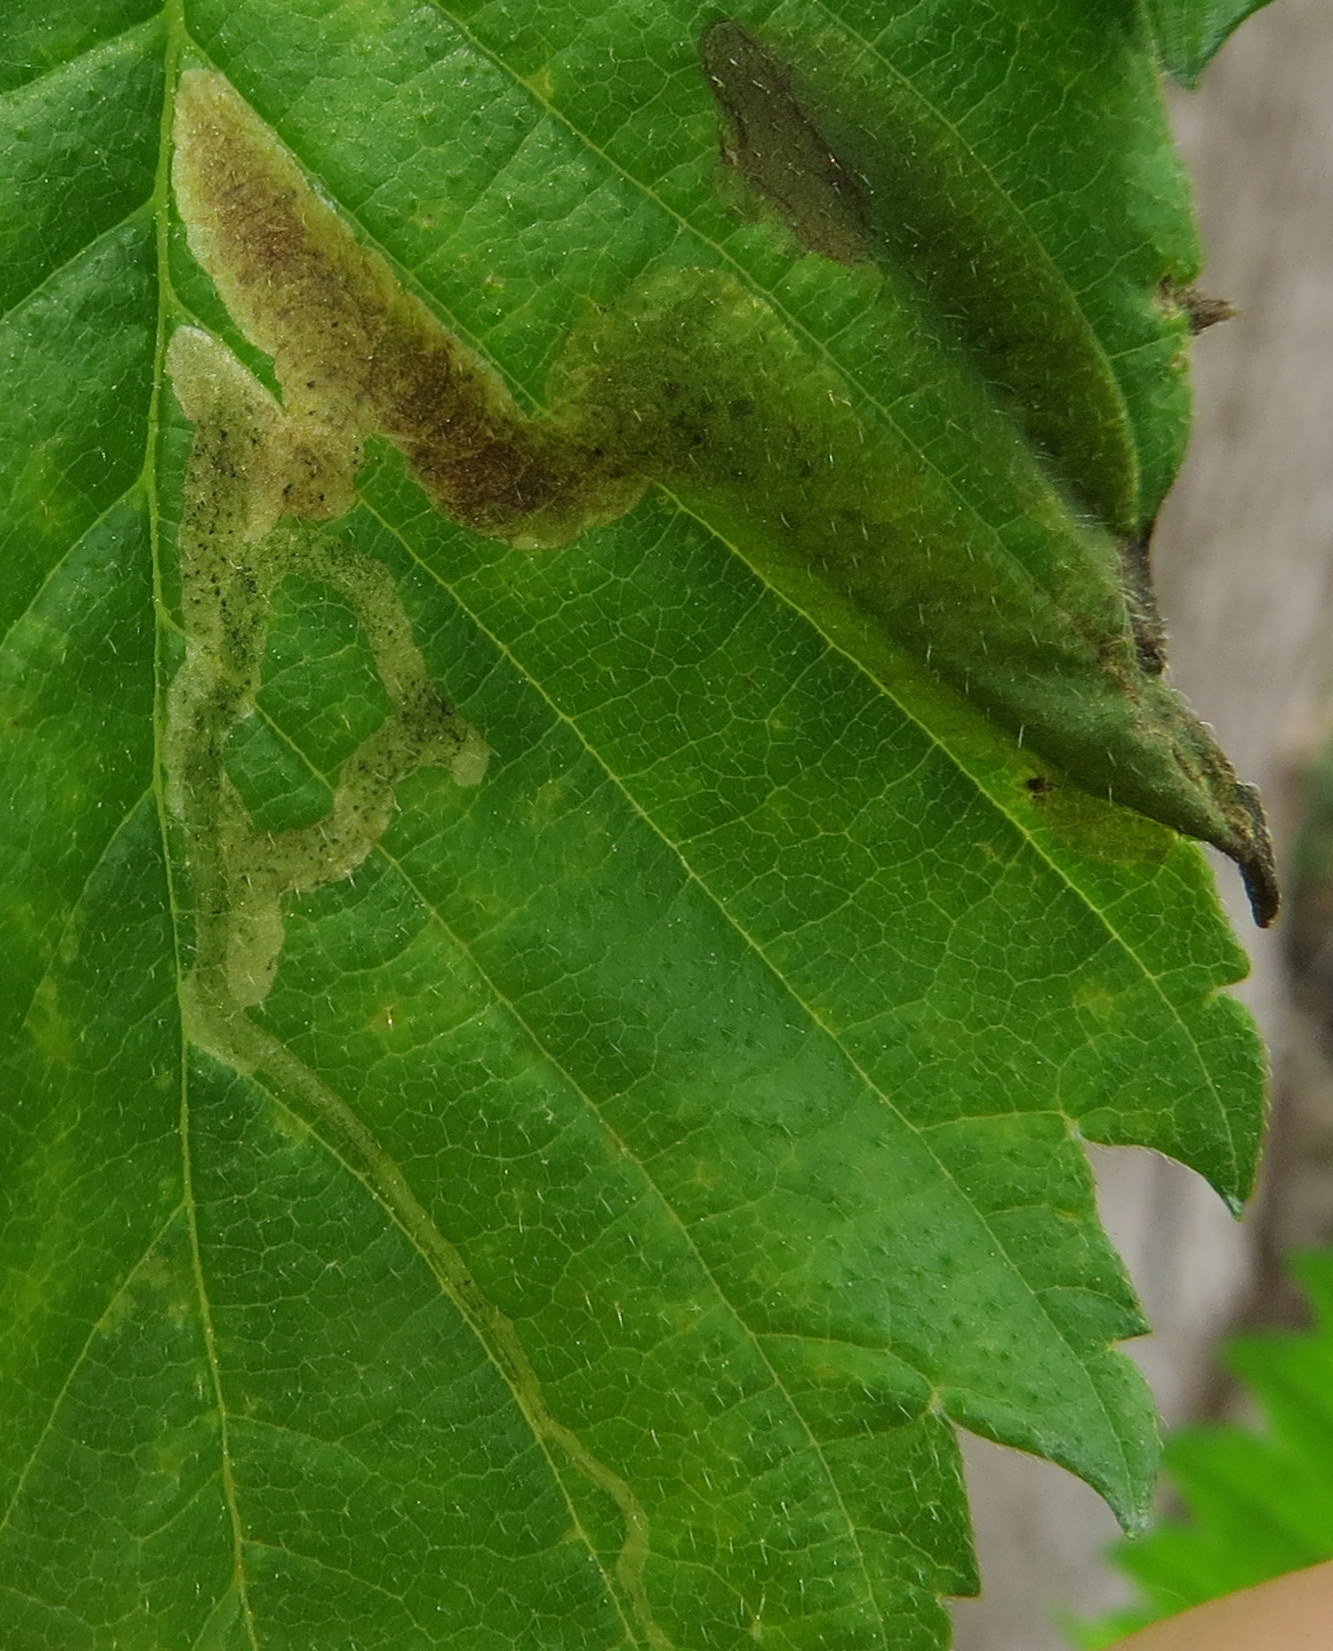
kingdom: Animalia
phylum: Arthropoda
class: Insecta
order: Diptera
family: Agromyzidae
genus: Agromyza
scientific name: Agromyza aristata
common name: Elm agromyzid leafminer
